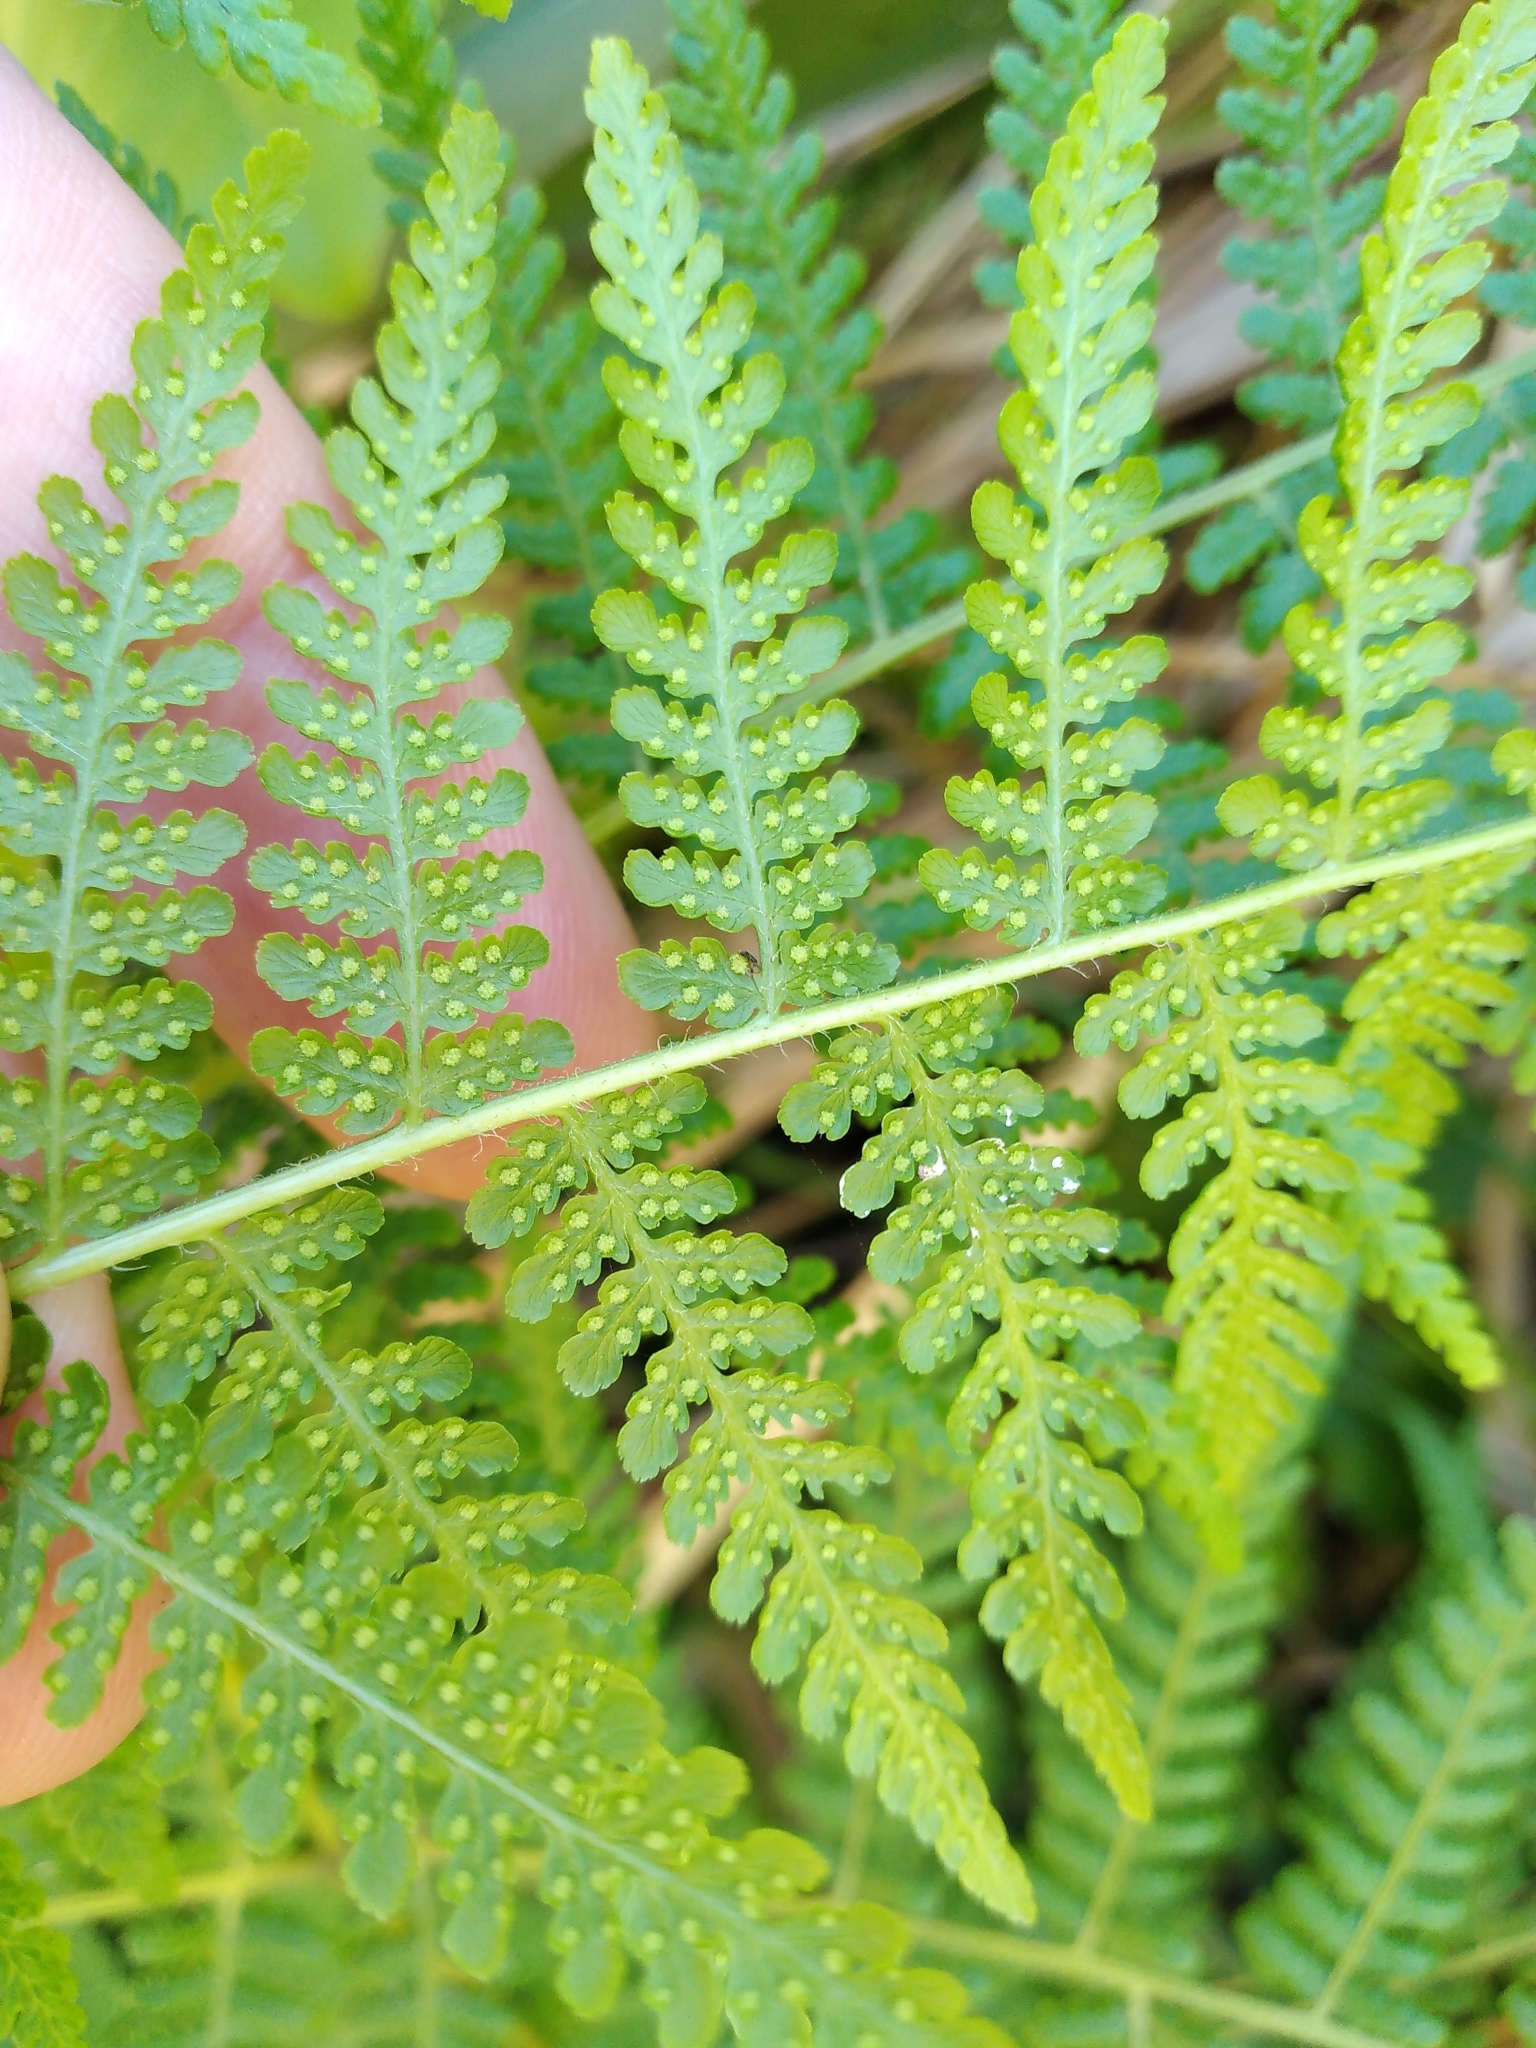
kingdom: Plantae
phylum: Tracheophyta
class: Polypodiopsida
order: Polypodiales
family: Dennstaedtiaceae
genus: Hypolepis
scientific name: Hypolepis ambigua
